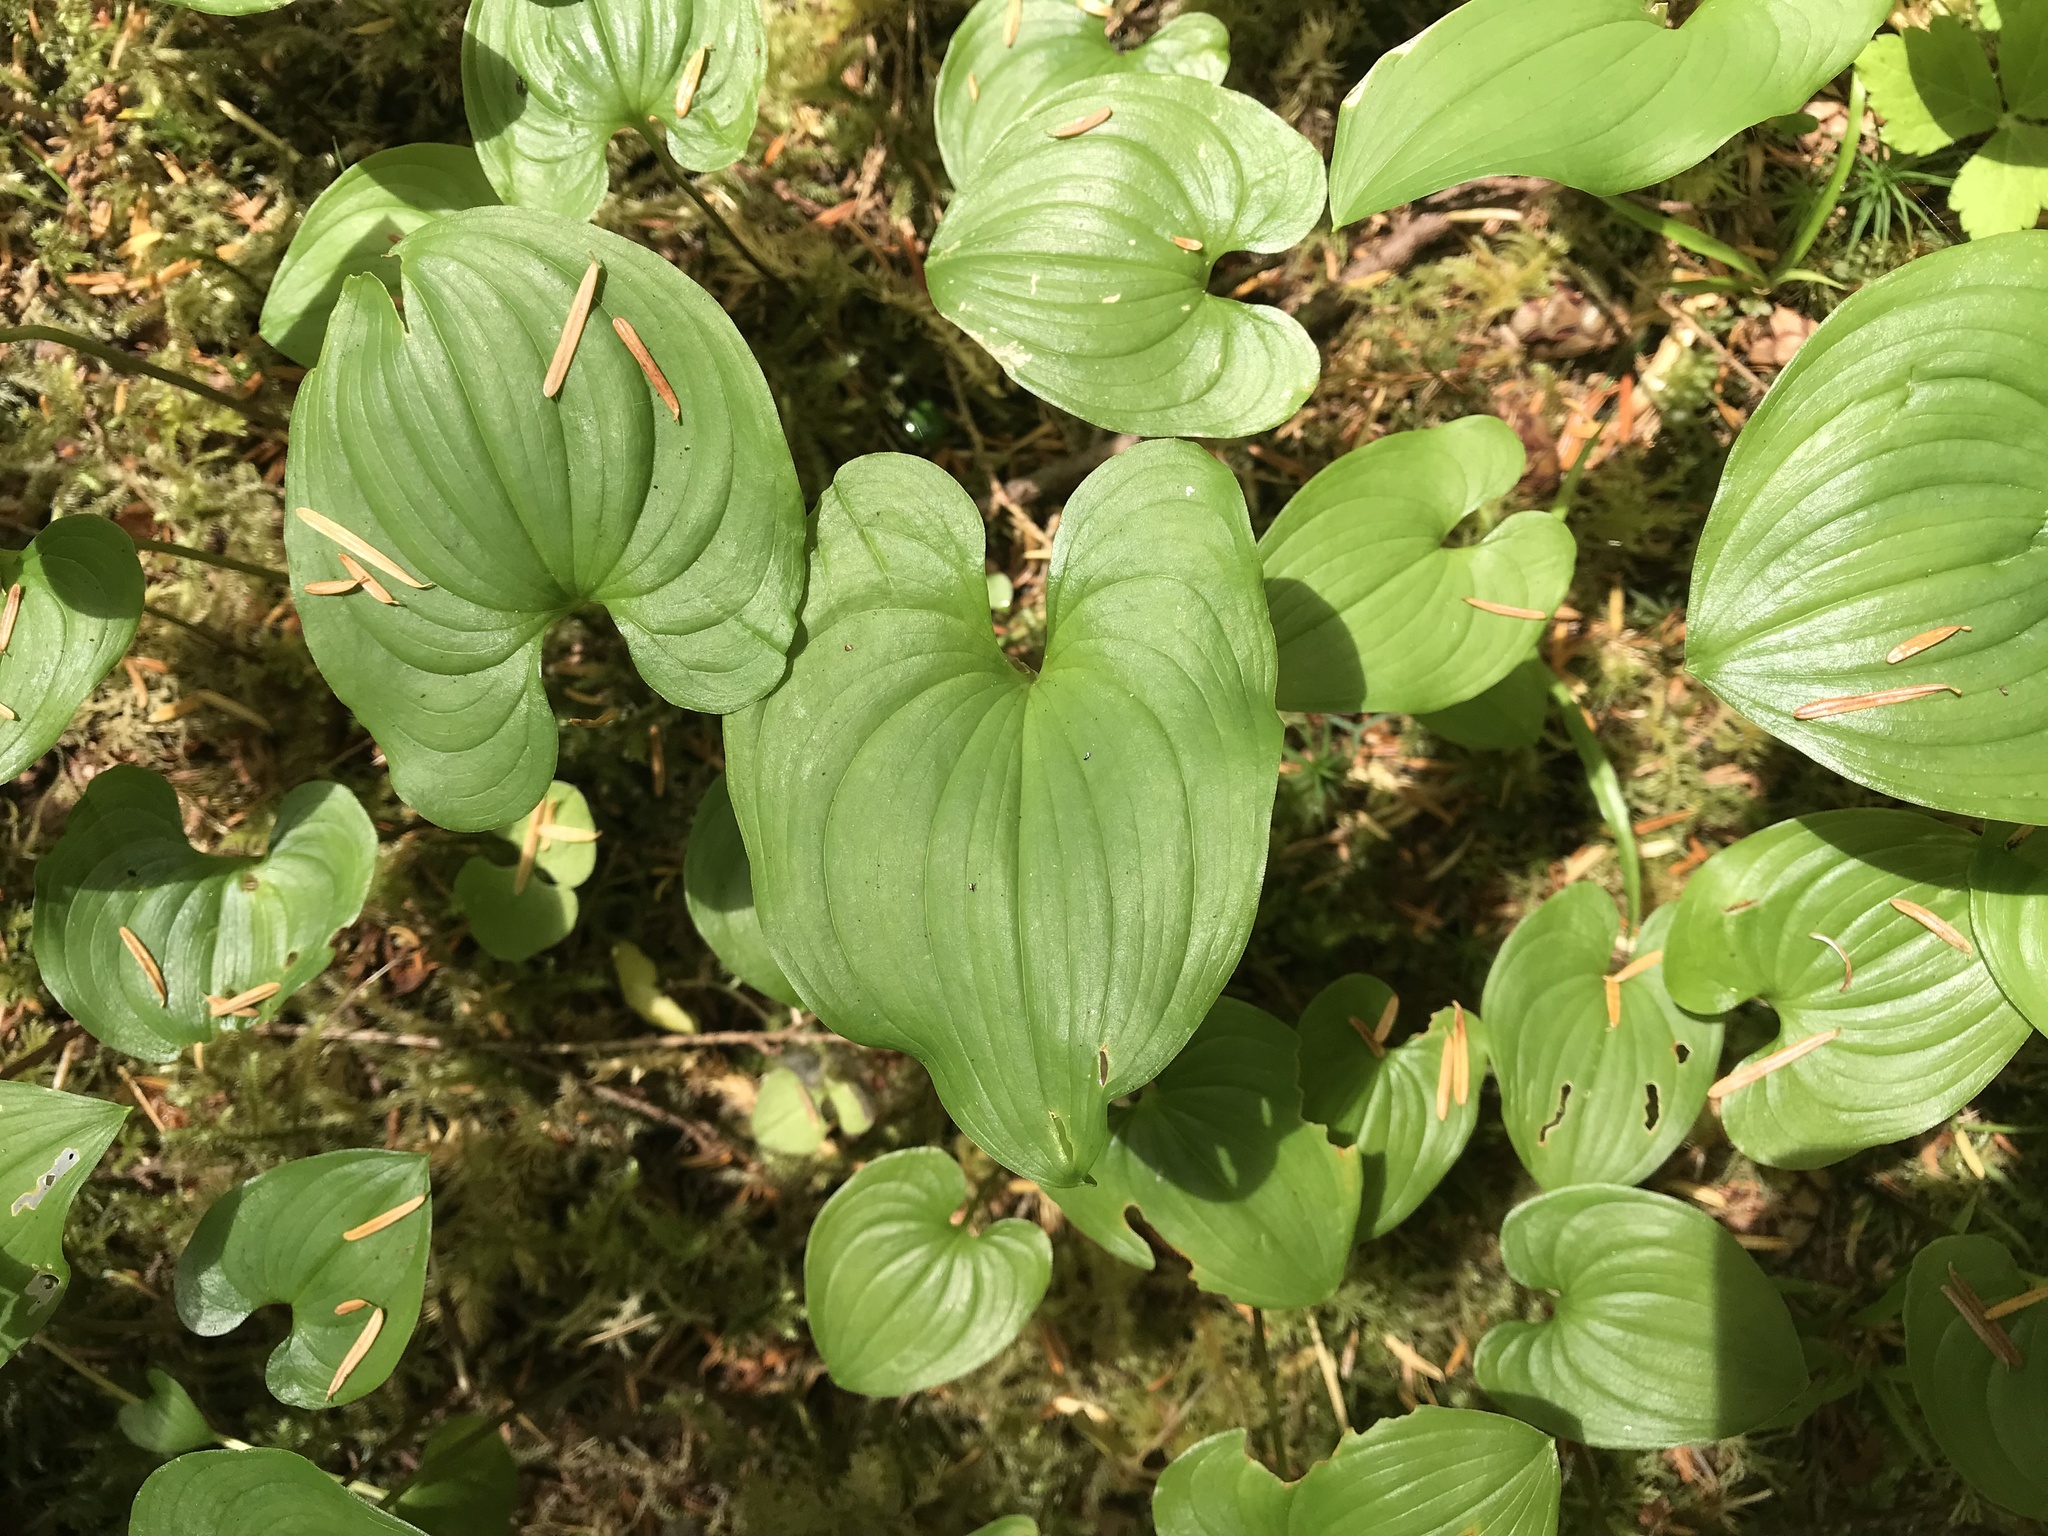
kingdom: Plantae
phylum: Tracheophyta
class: Liliopsida
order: Asparagales
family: Asparagaceae
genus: Maianthemum
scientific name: Maianthemum dilatatum
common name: False lily-of-the-valley
